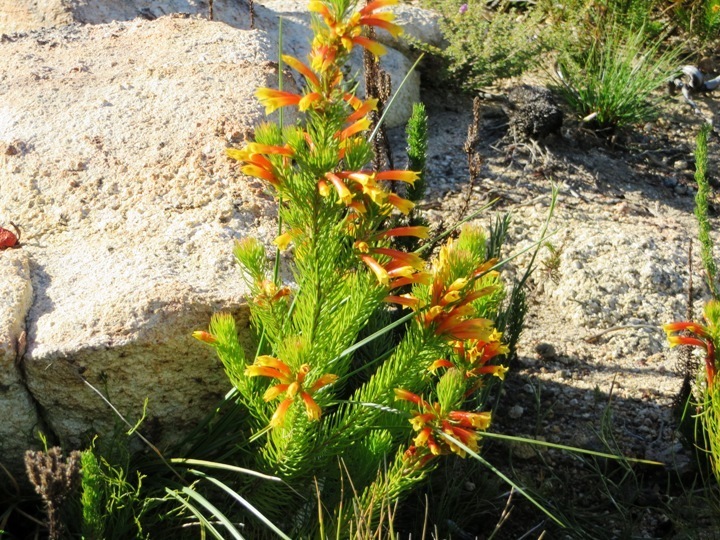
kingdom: Plantae
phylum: Tracheophyta
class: Magnoliopsida
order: Ericales
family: Ericaceae
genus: Erica
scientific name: Erica grandiflora
